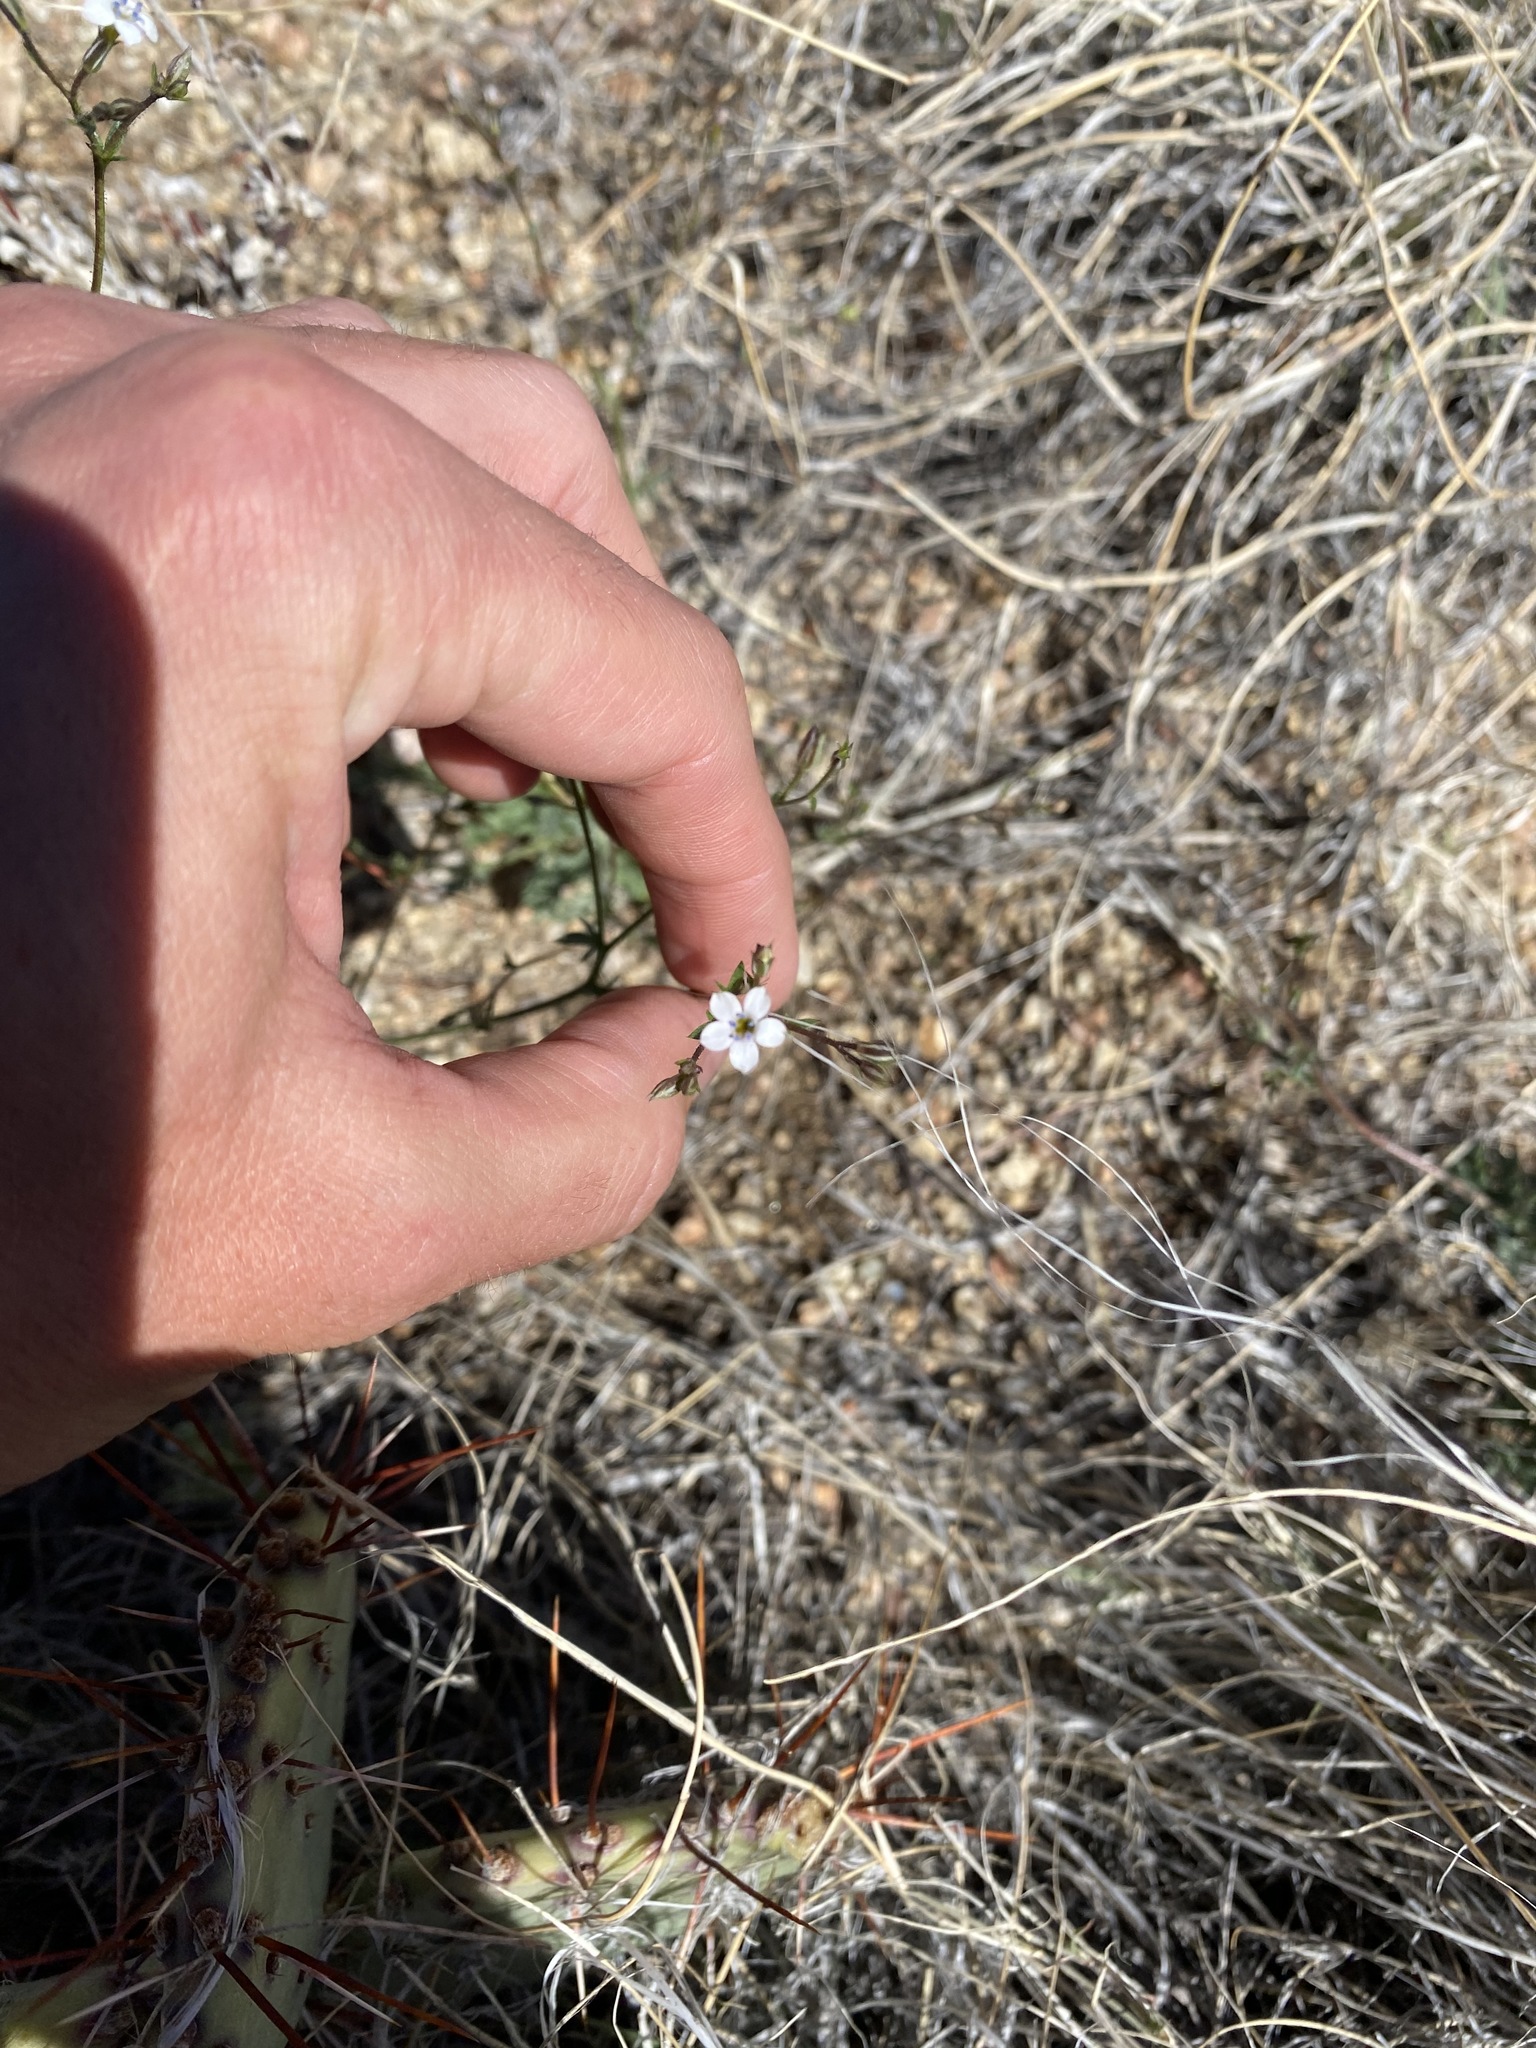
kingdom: Plantae
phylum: Tracheophyta
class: Magnoliopsida
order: Ericales
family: Polemoniaceae
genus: Gilia
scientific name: Gilia clokeyi
